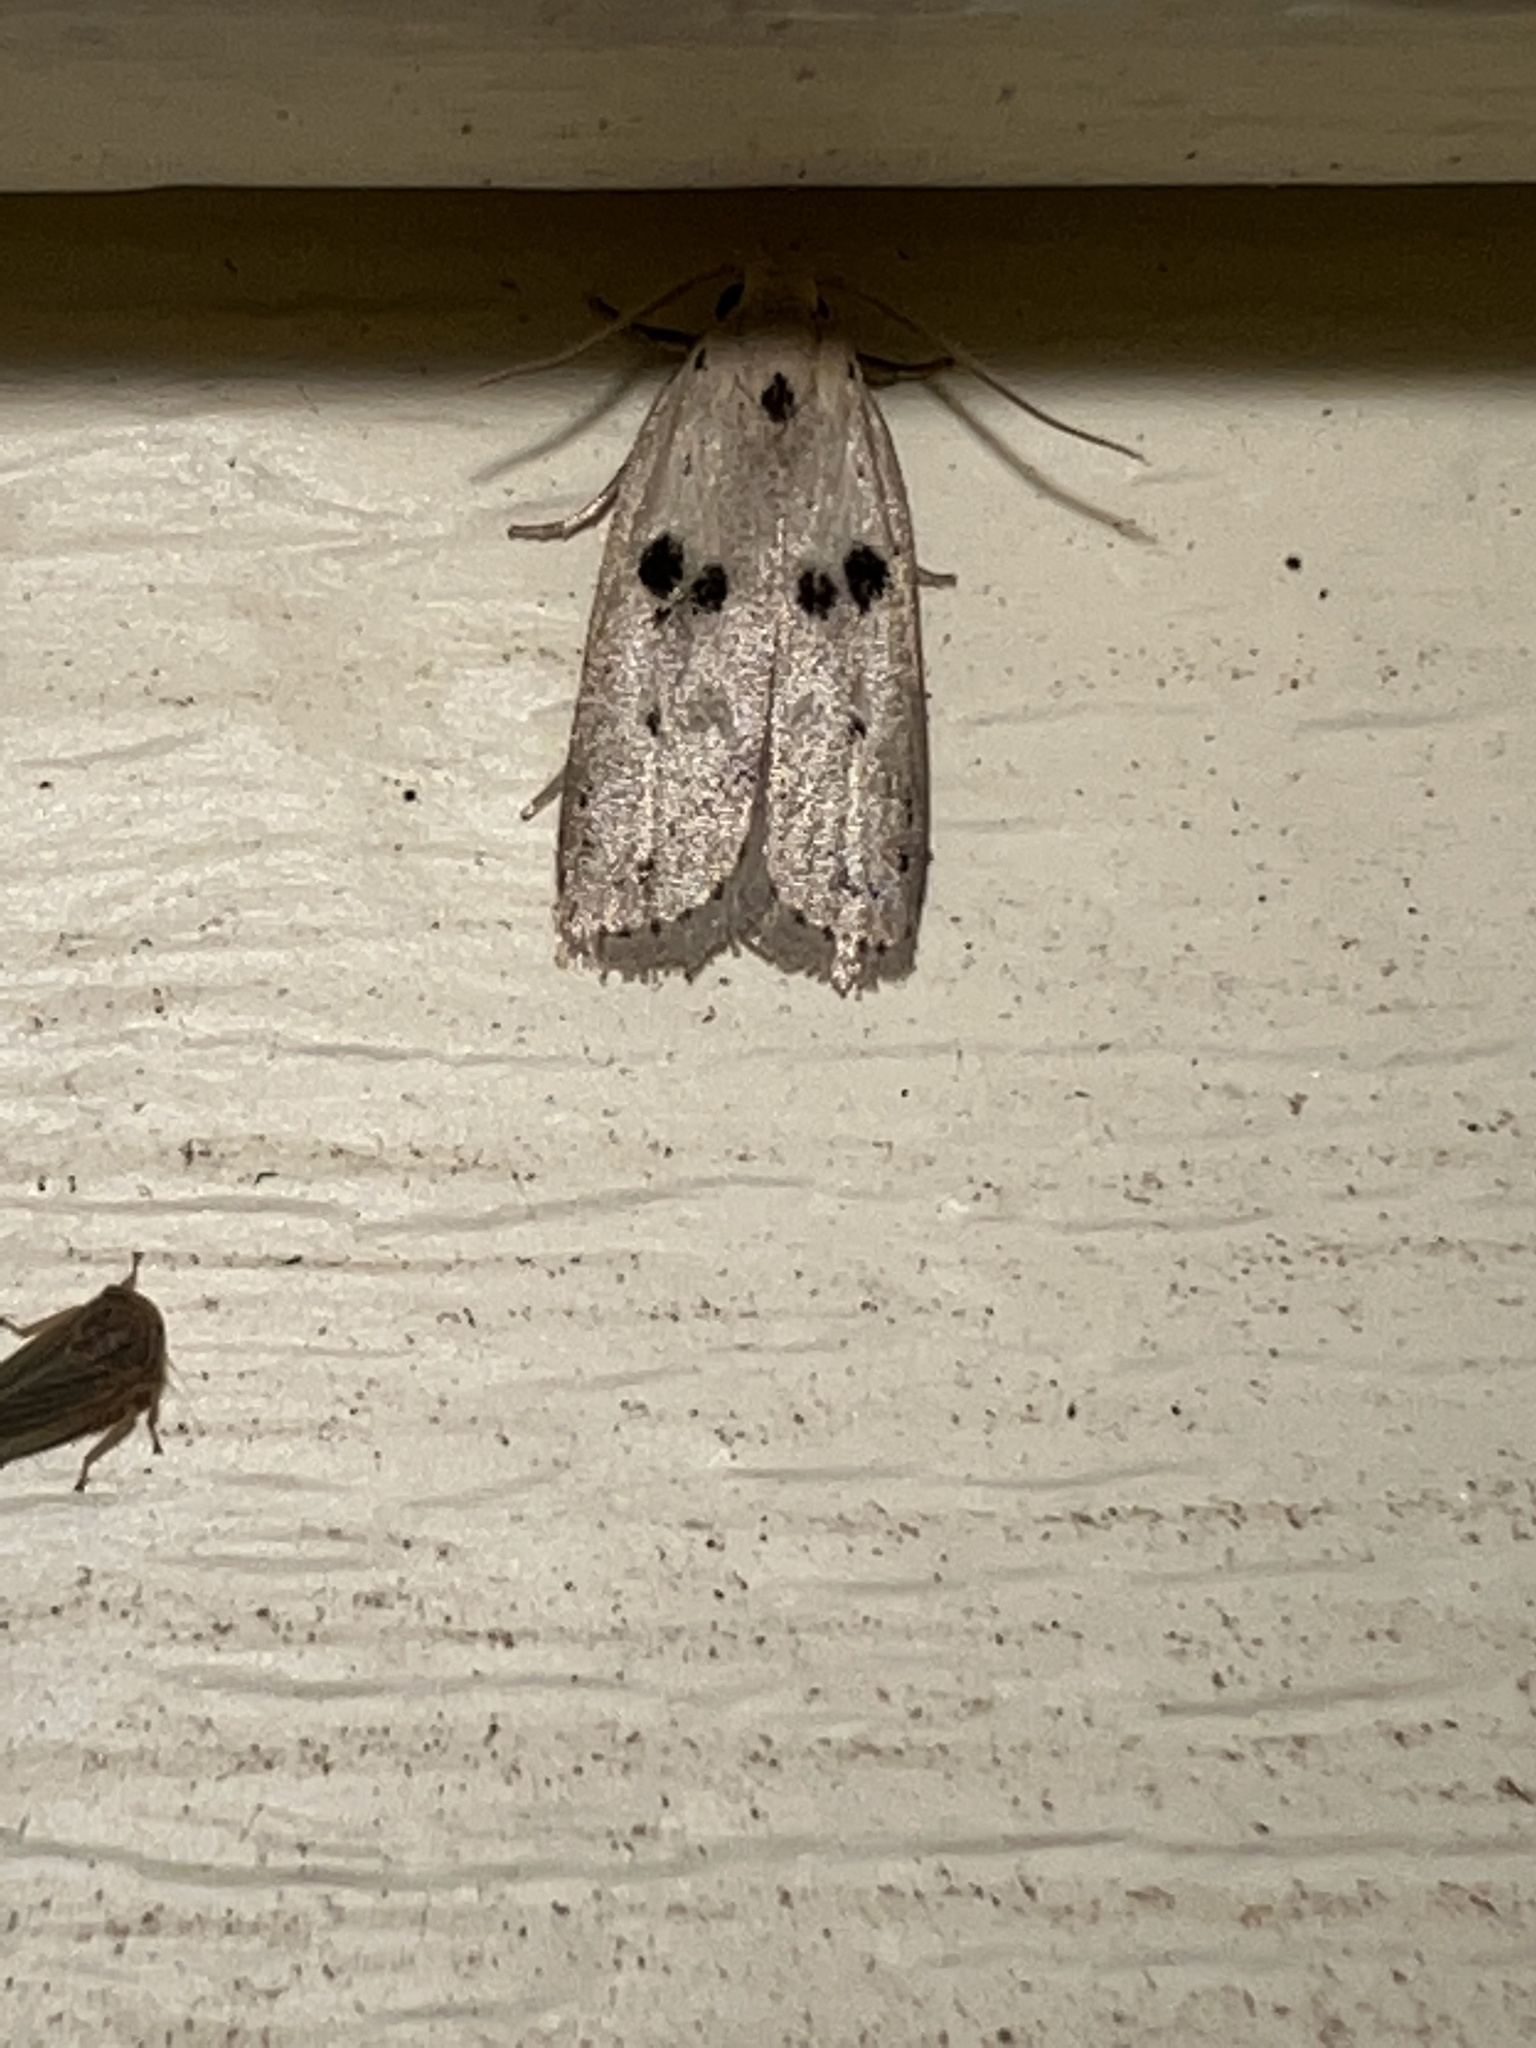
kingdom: Animalia
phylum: Arthropoda
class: Insecta
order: Lepidoptera
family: Peleopodidae
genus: Scythropiodes
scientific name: Scythropiodes issikii
